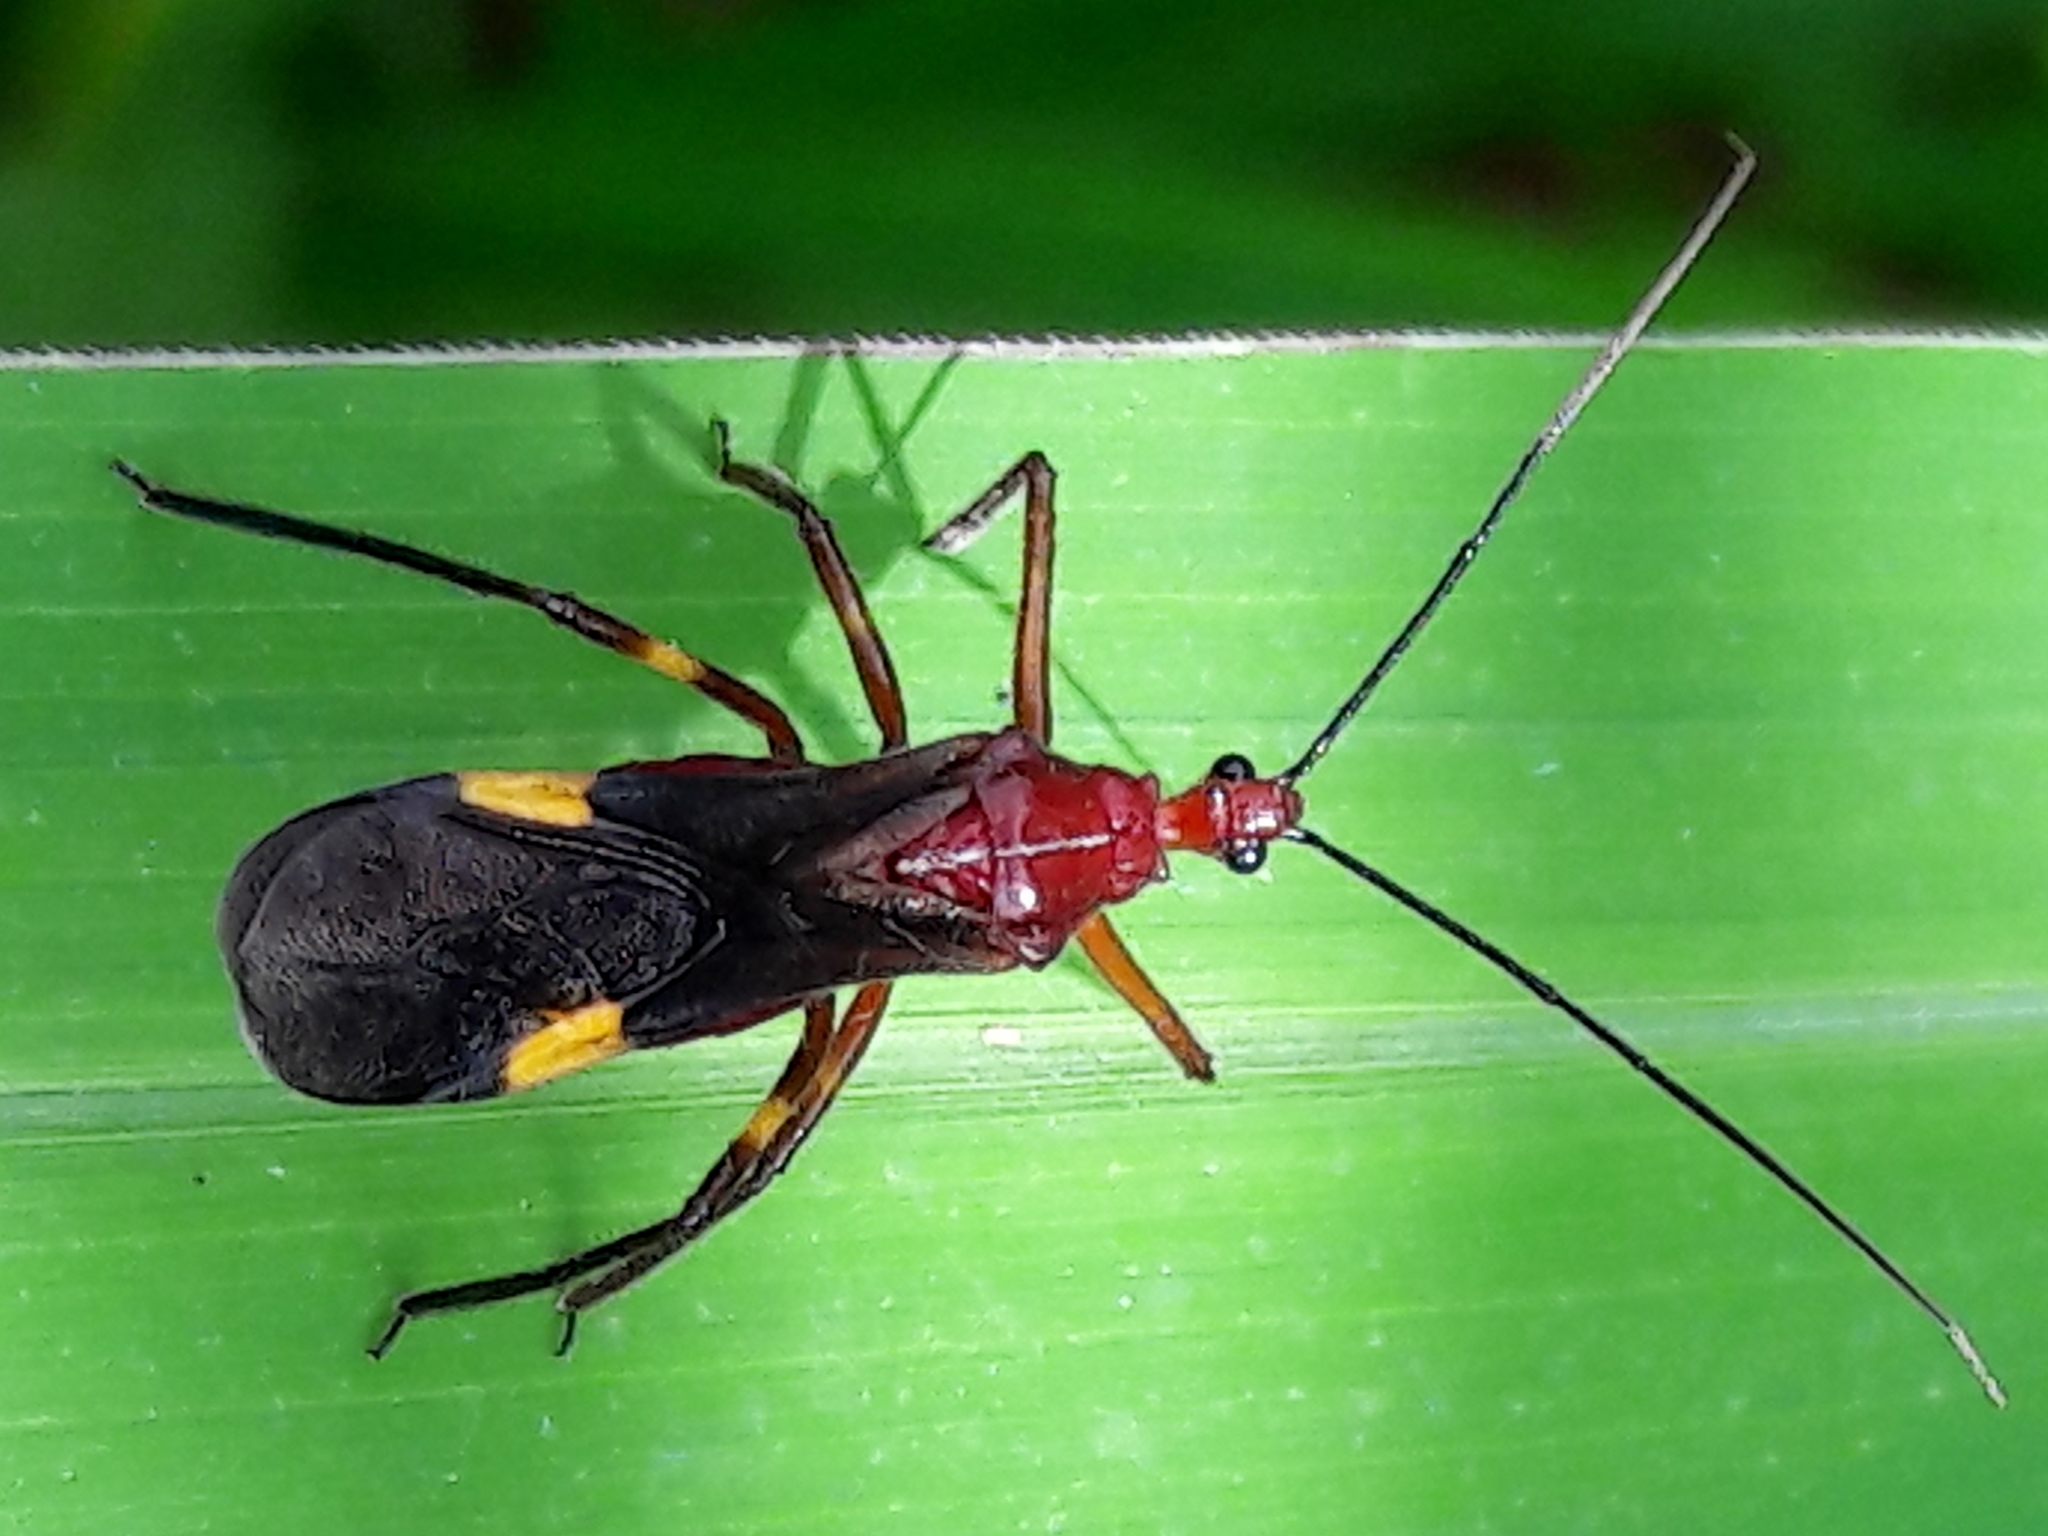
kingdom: Animalia
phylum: Arthropoda
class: Insecta
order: Hemiptera
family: Reduviidae
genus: Graptocleptes
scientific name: Graptocleptes bicolor
